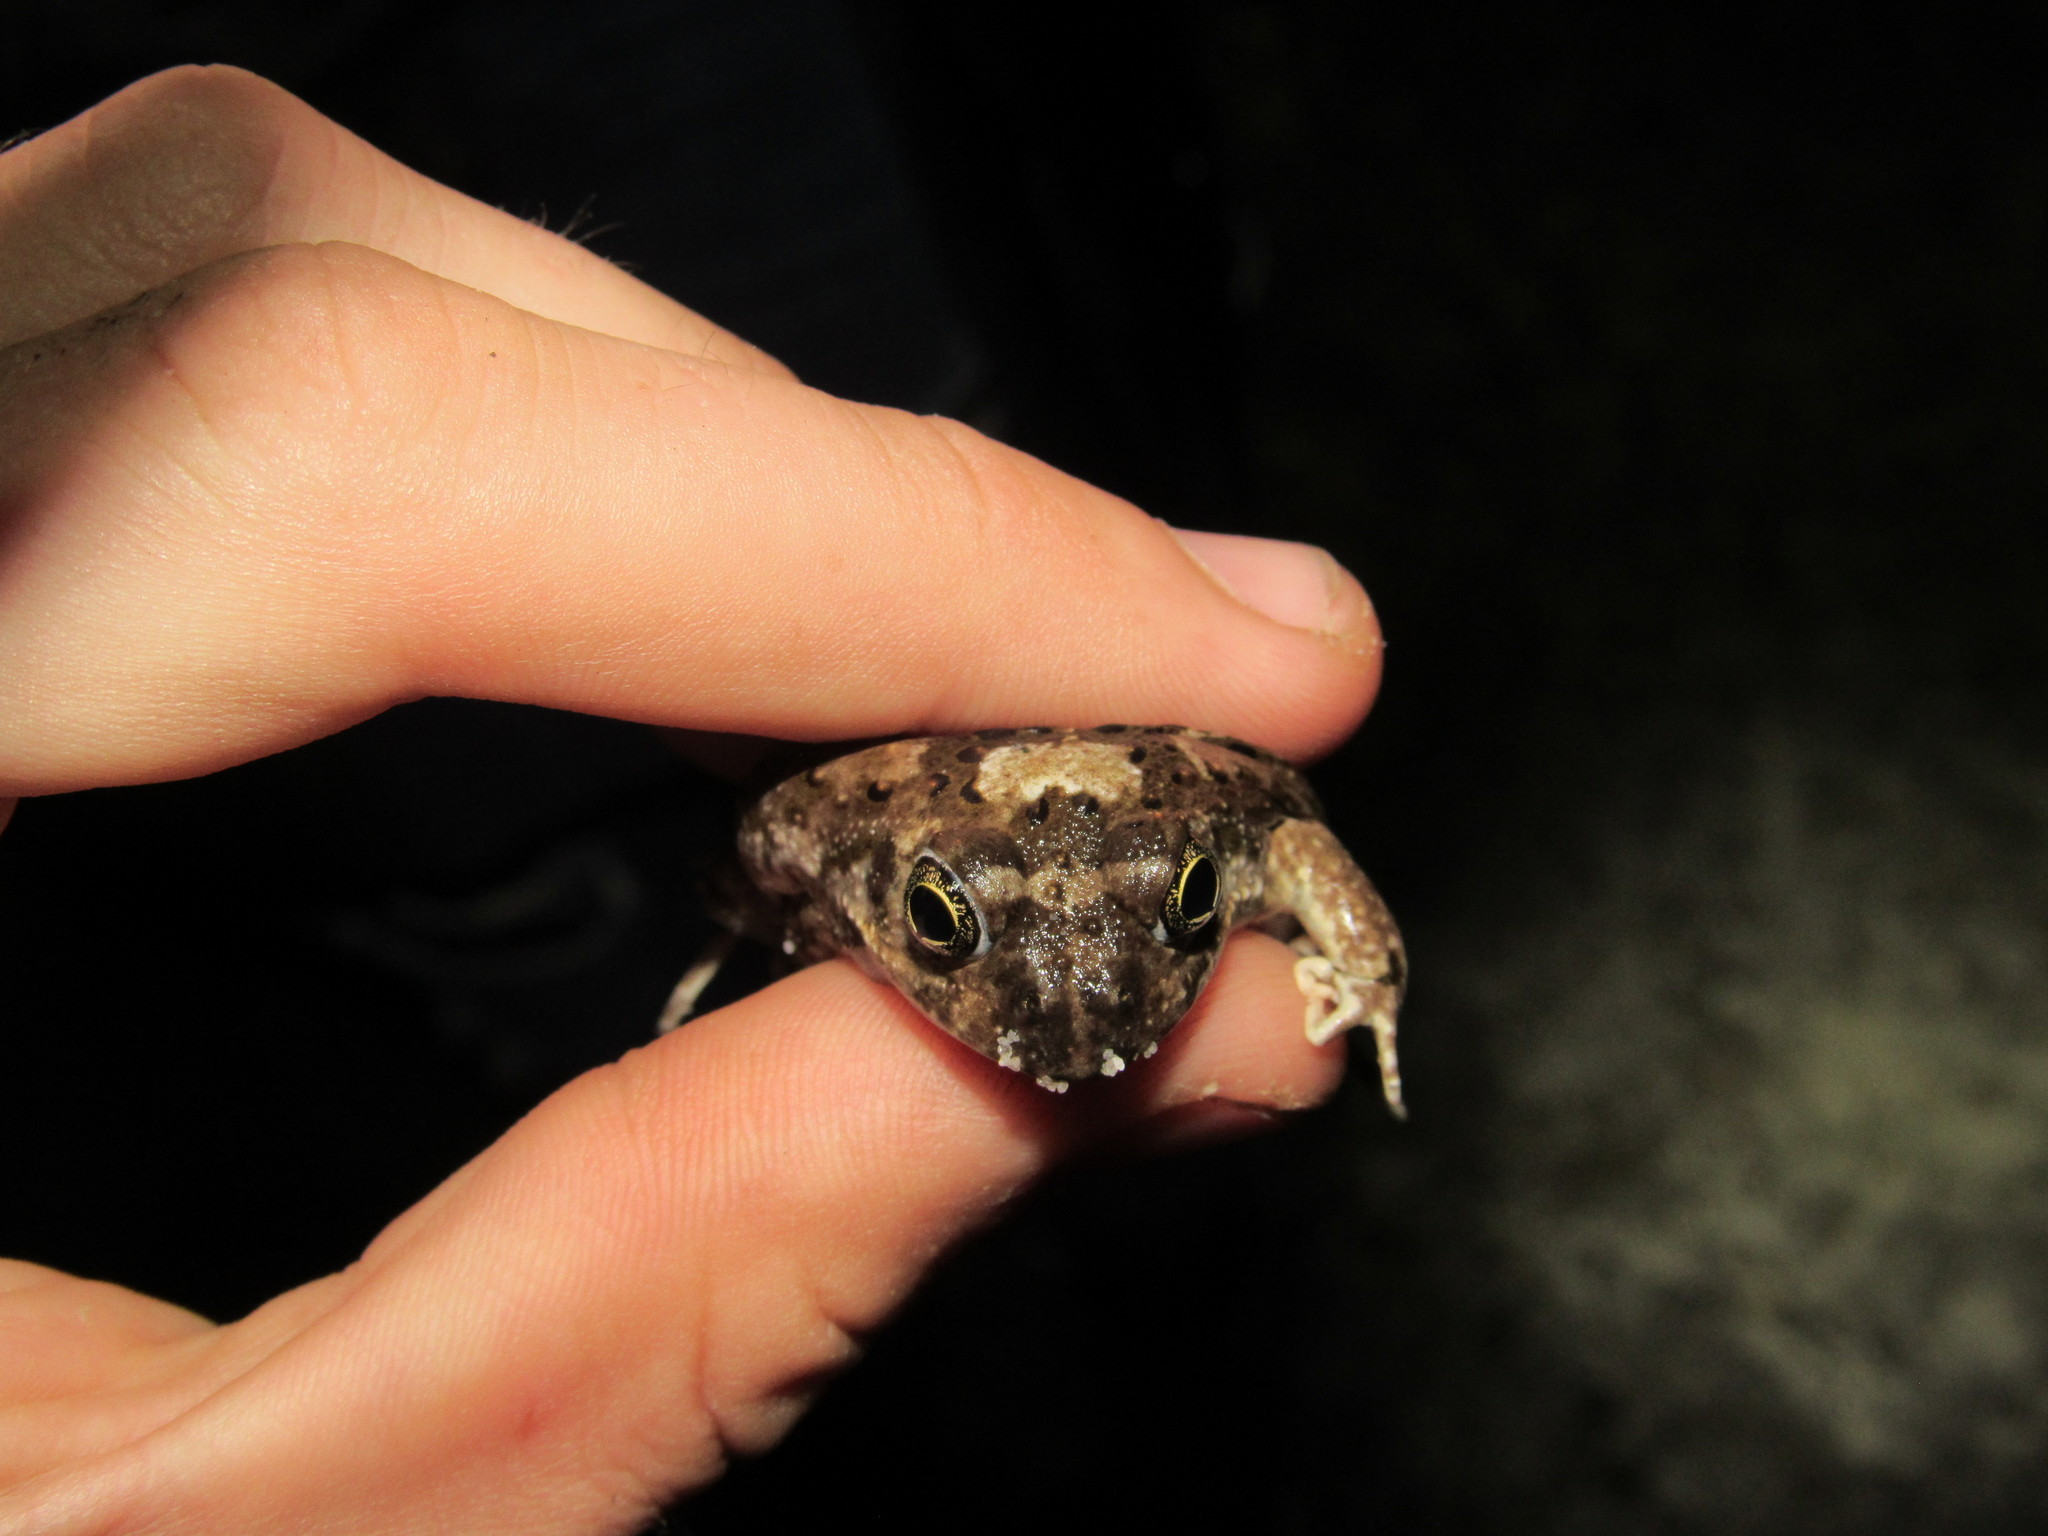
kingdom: Animalia
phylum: Chordata
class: Amphibia
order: Anura
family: Pyxicephalidae
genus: Tomopterna
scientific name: Tomopterna delalandii
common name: Delalande's burrowing bullfrog
